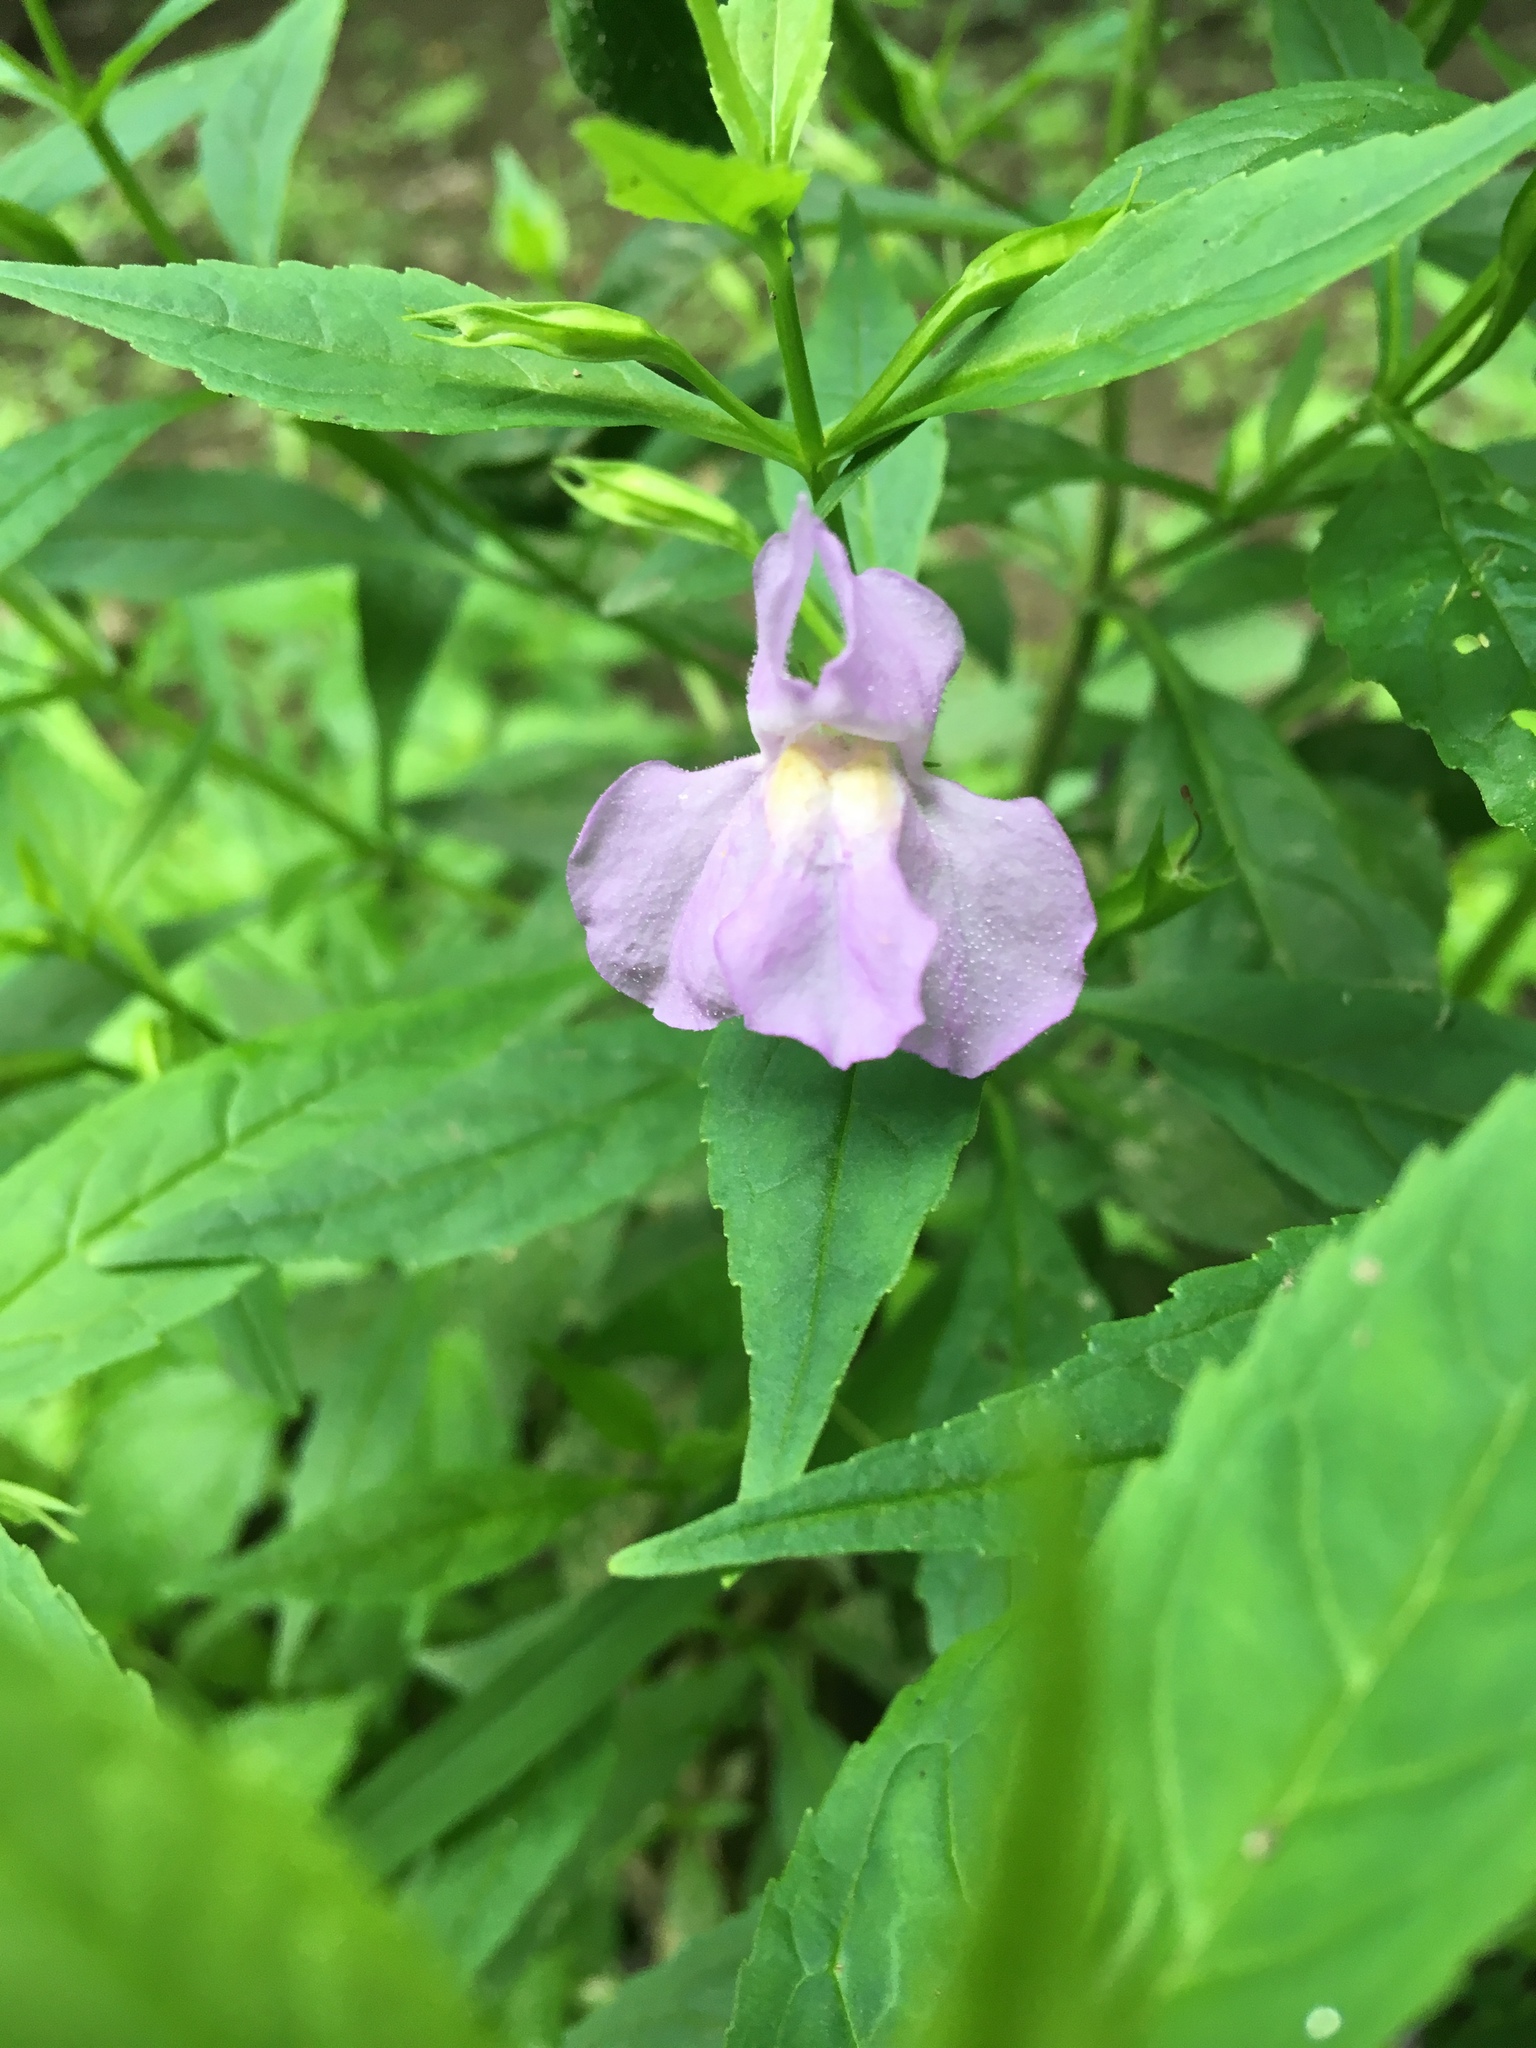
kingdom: Plantae
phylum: Tracheophyta
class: Magnoliopsida
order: Lamiales
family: Phrymaceae
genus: Mimulus
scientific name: Mimulus ringens
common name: Allegheny monkeyflower
